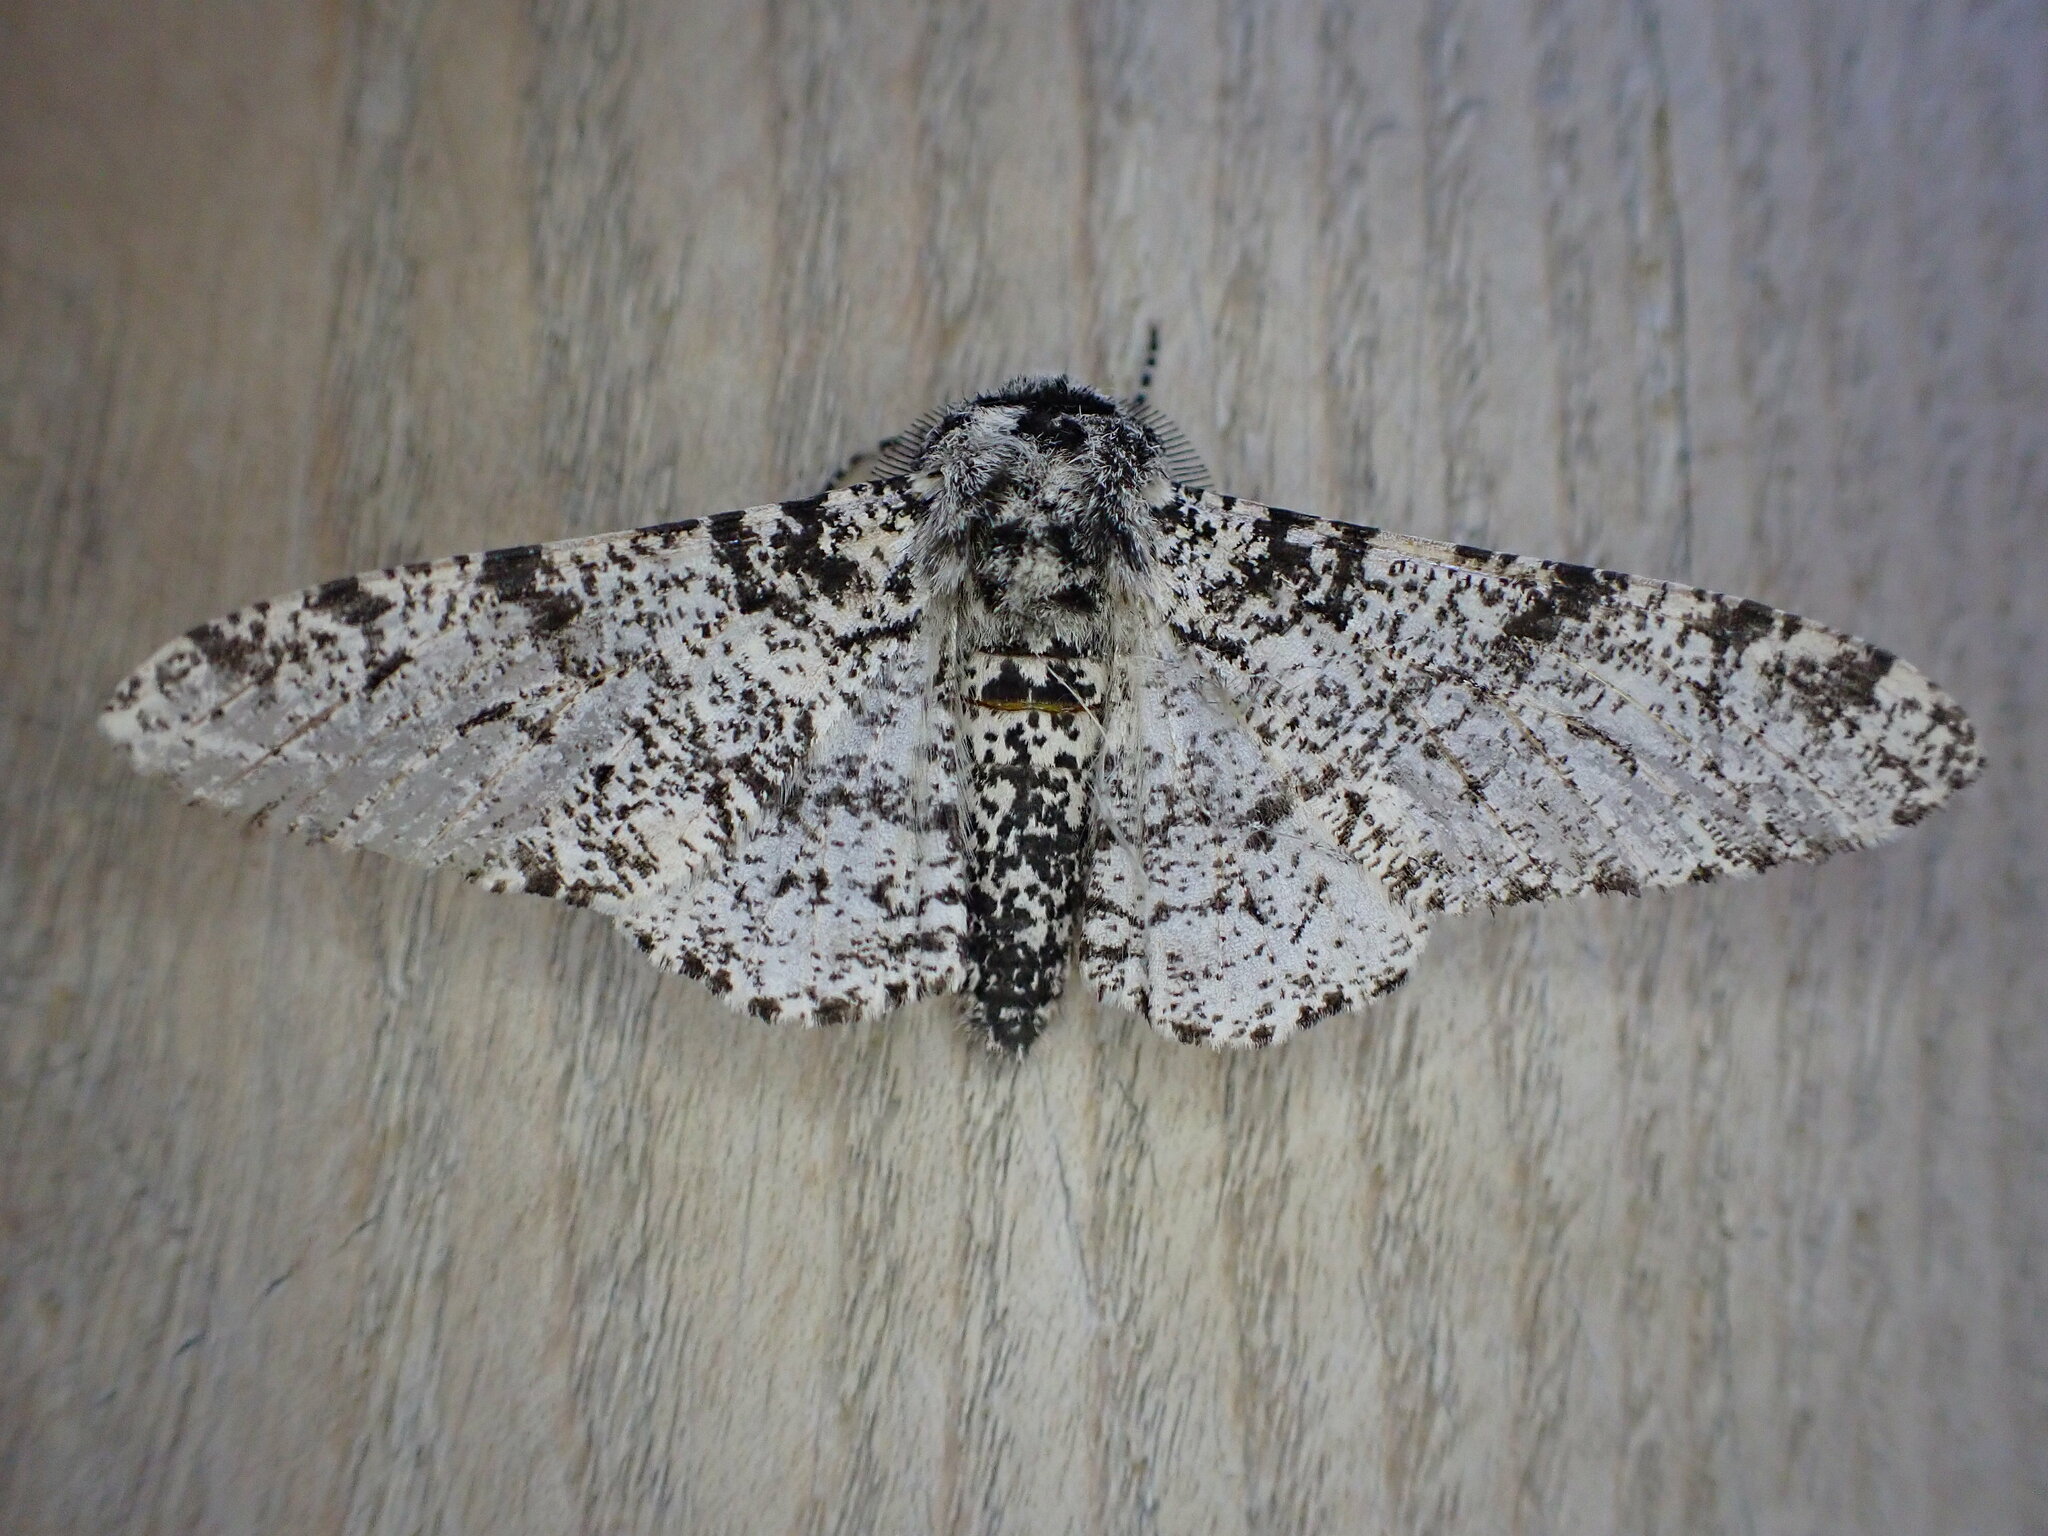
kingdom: Animalia
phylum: Arthropoda
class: Insecta
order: Lepidoptera
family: Geometridae
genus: Biston
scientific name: Biston betularia
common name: Peppered moth
